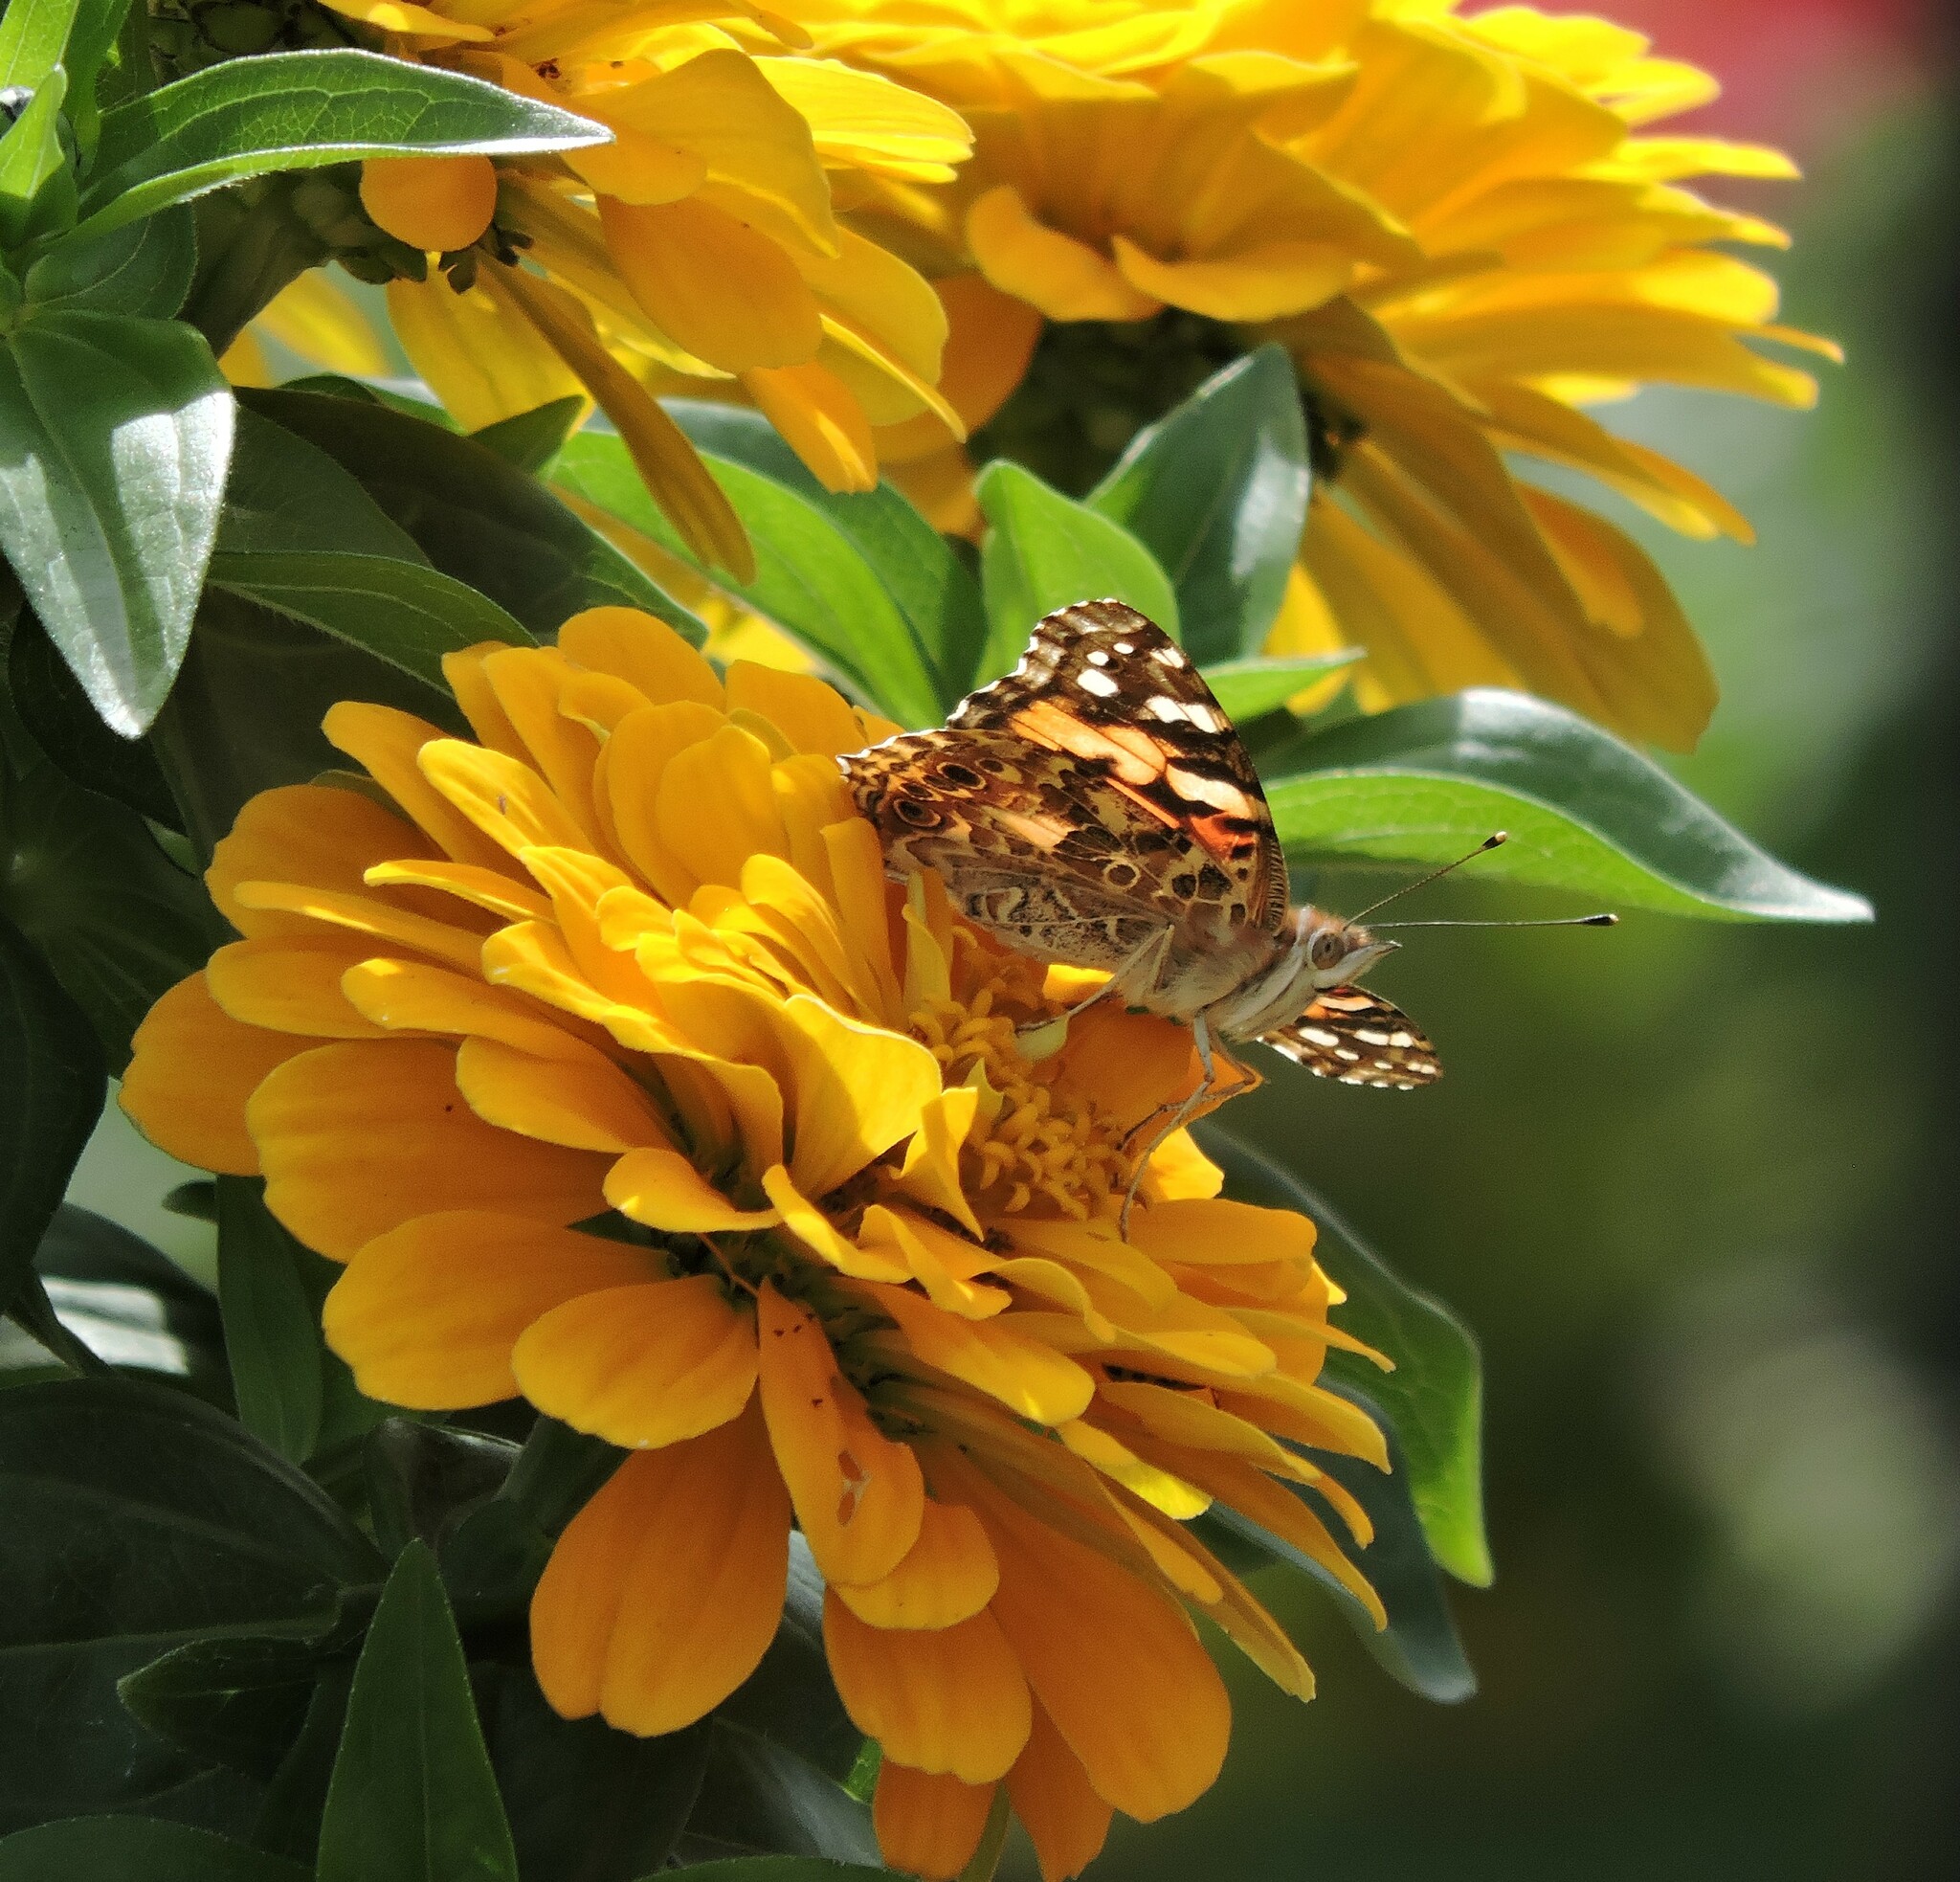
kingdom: Animalia
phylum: Arthropoda
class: Insecta
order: Lepidoptera
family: Nymphalidae
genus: Vanessa
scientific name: Vanessa cardui
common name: Painted lady
